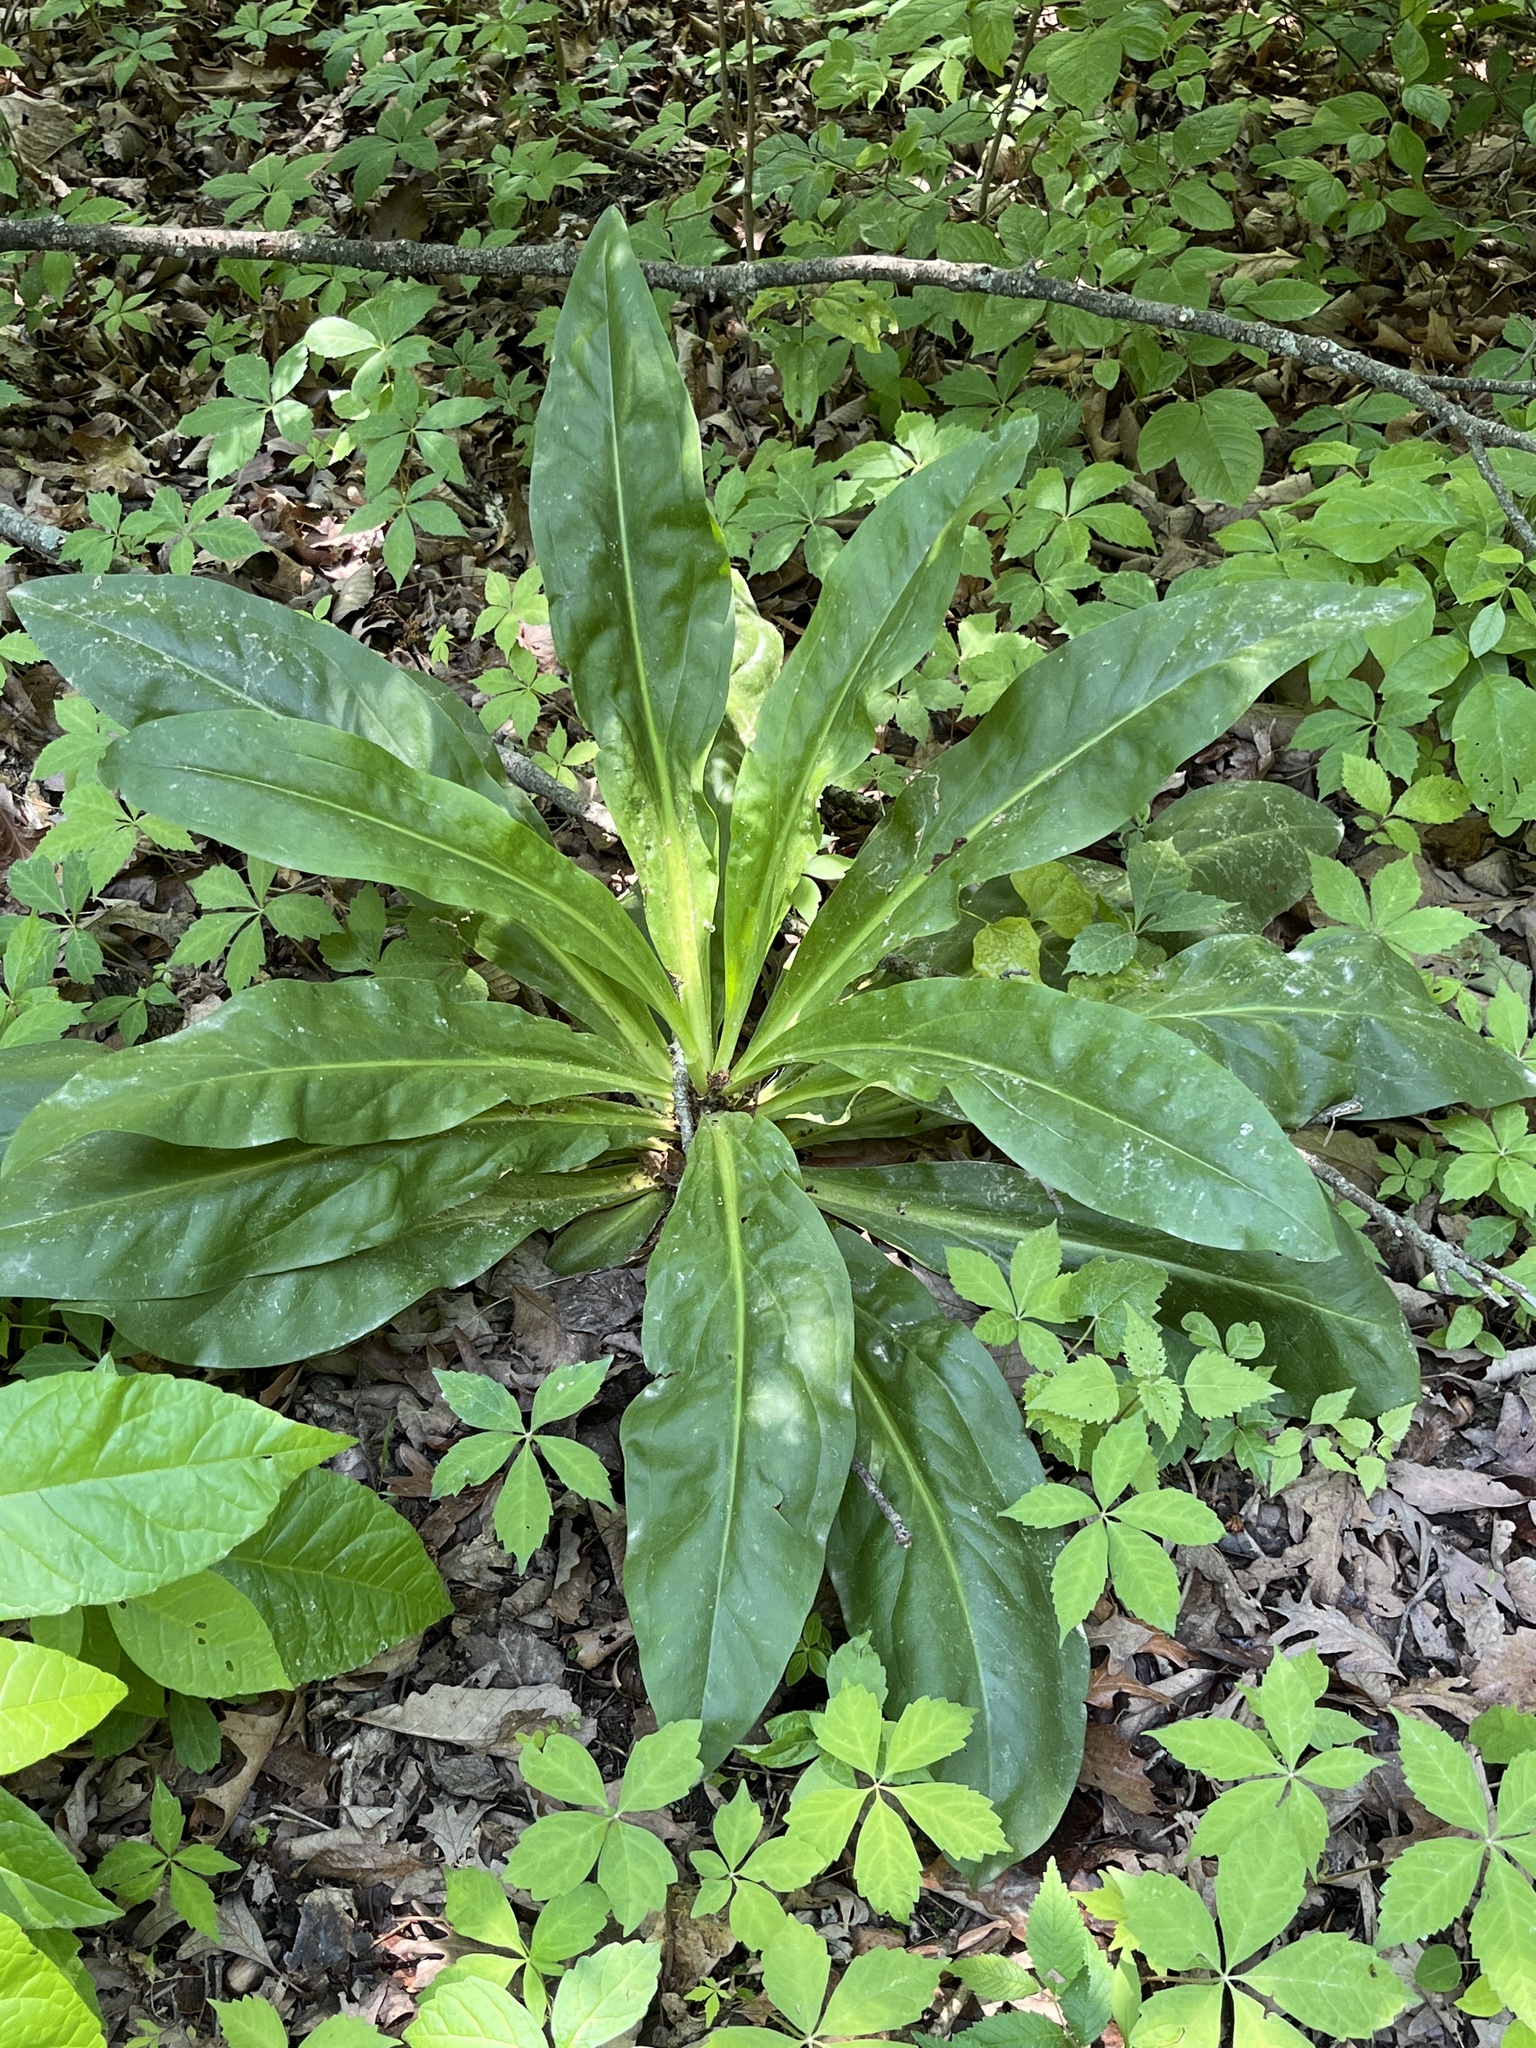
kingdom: Plantae
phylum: Tracheophyta
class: Magnoliopsida
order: Gentianales
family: Gentianaceae
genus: Frasera
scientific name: Frasera caroliniensis
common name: American columbo
